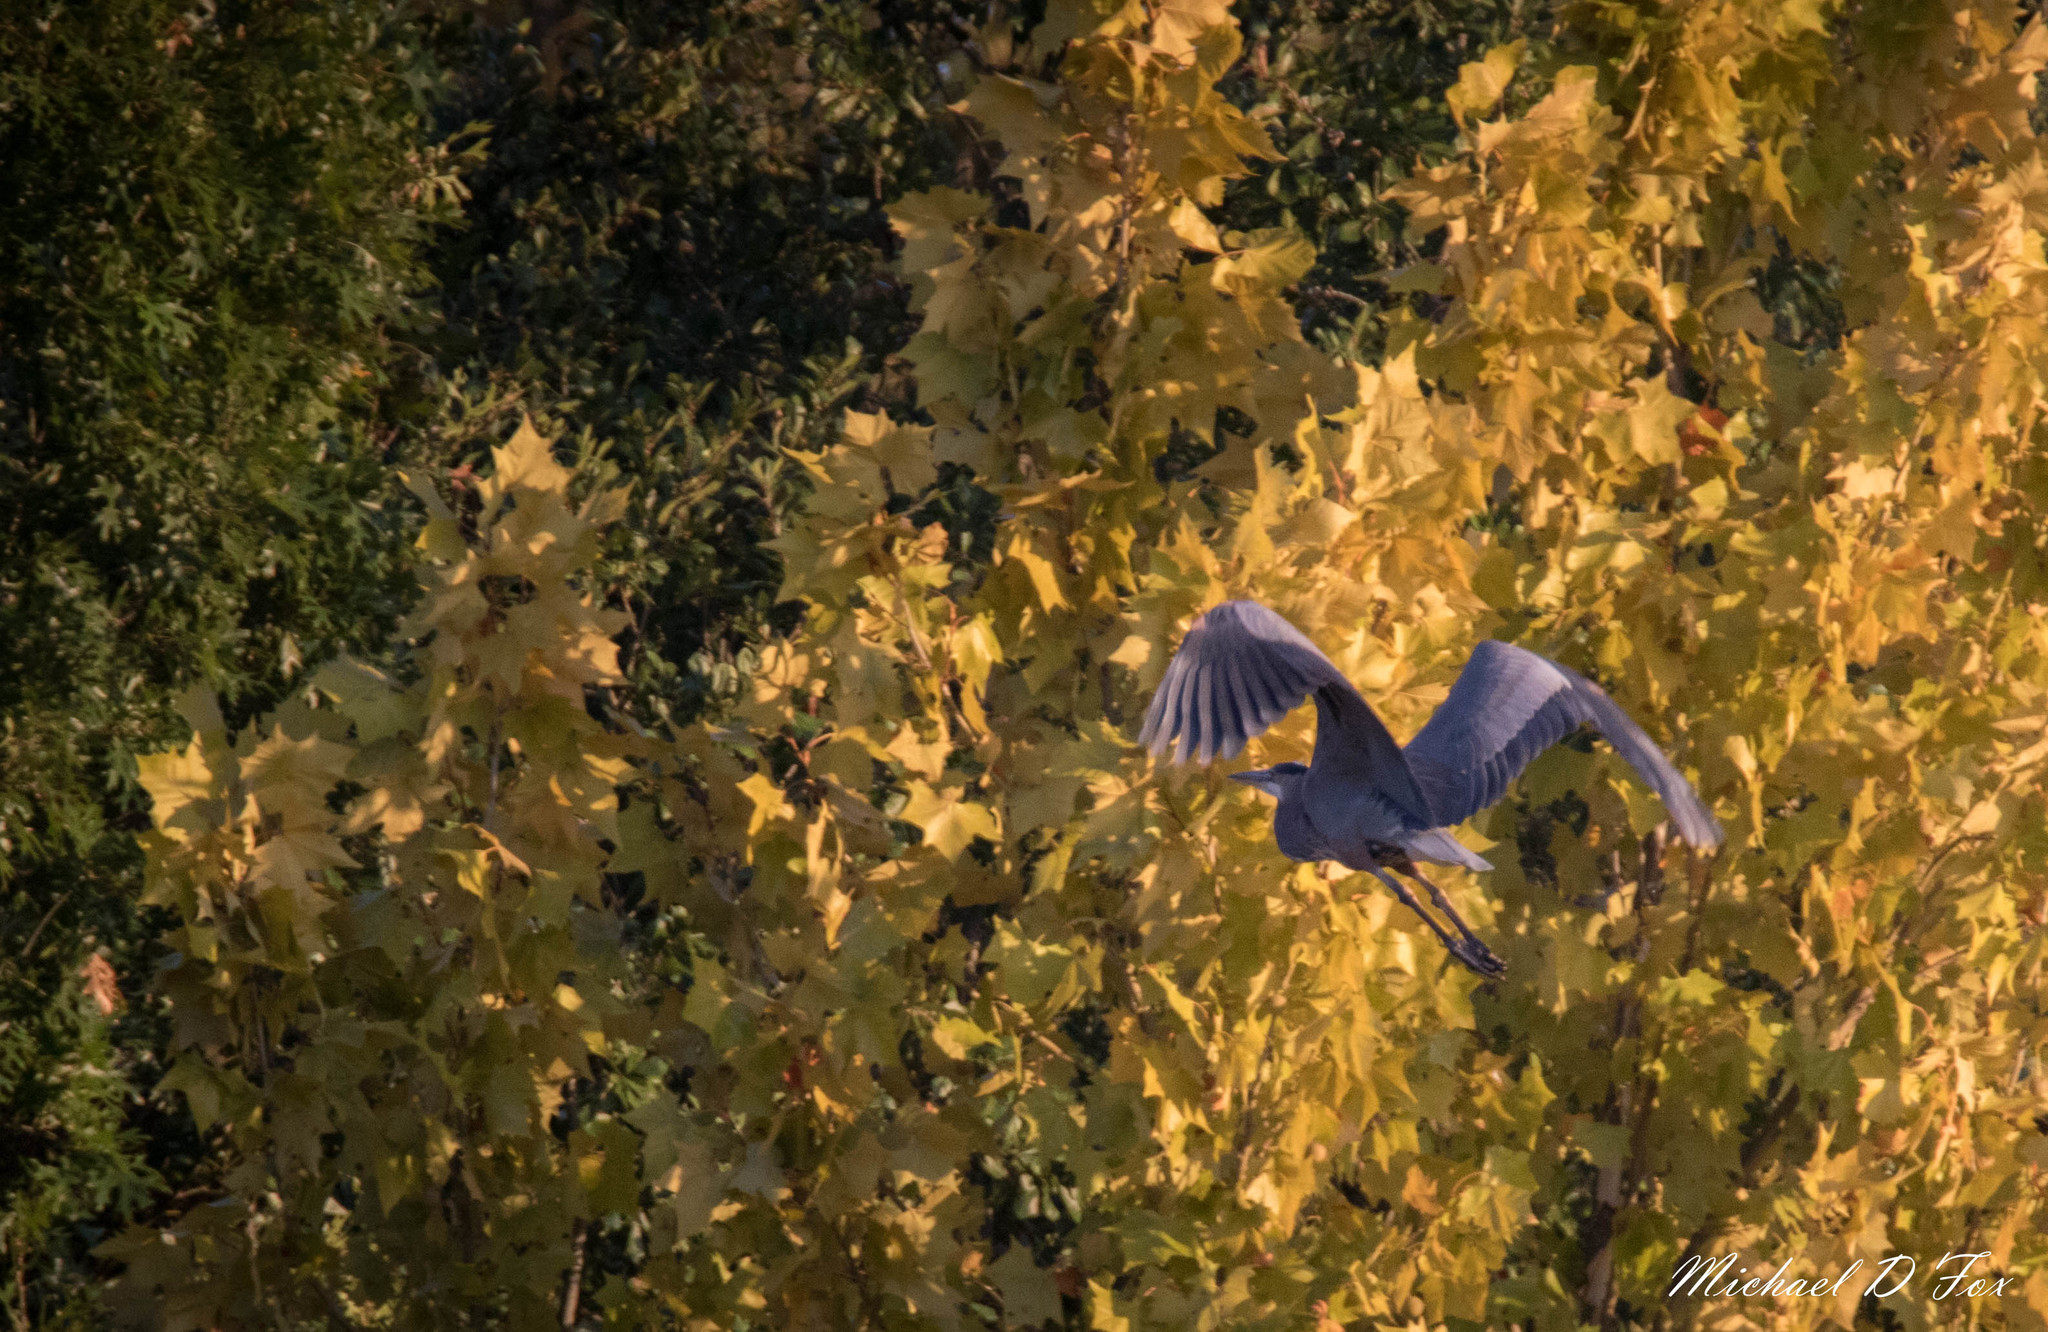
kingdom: Animalia
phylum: Chordata
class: Aves
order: Pelecaniformes
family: Ardeidae
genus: Ardea
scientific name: Ardea herodias
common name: Great blue heron
